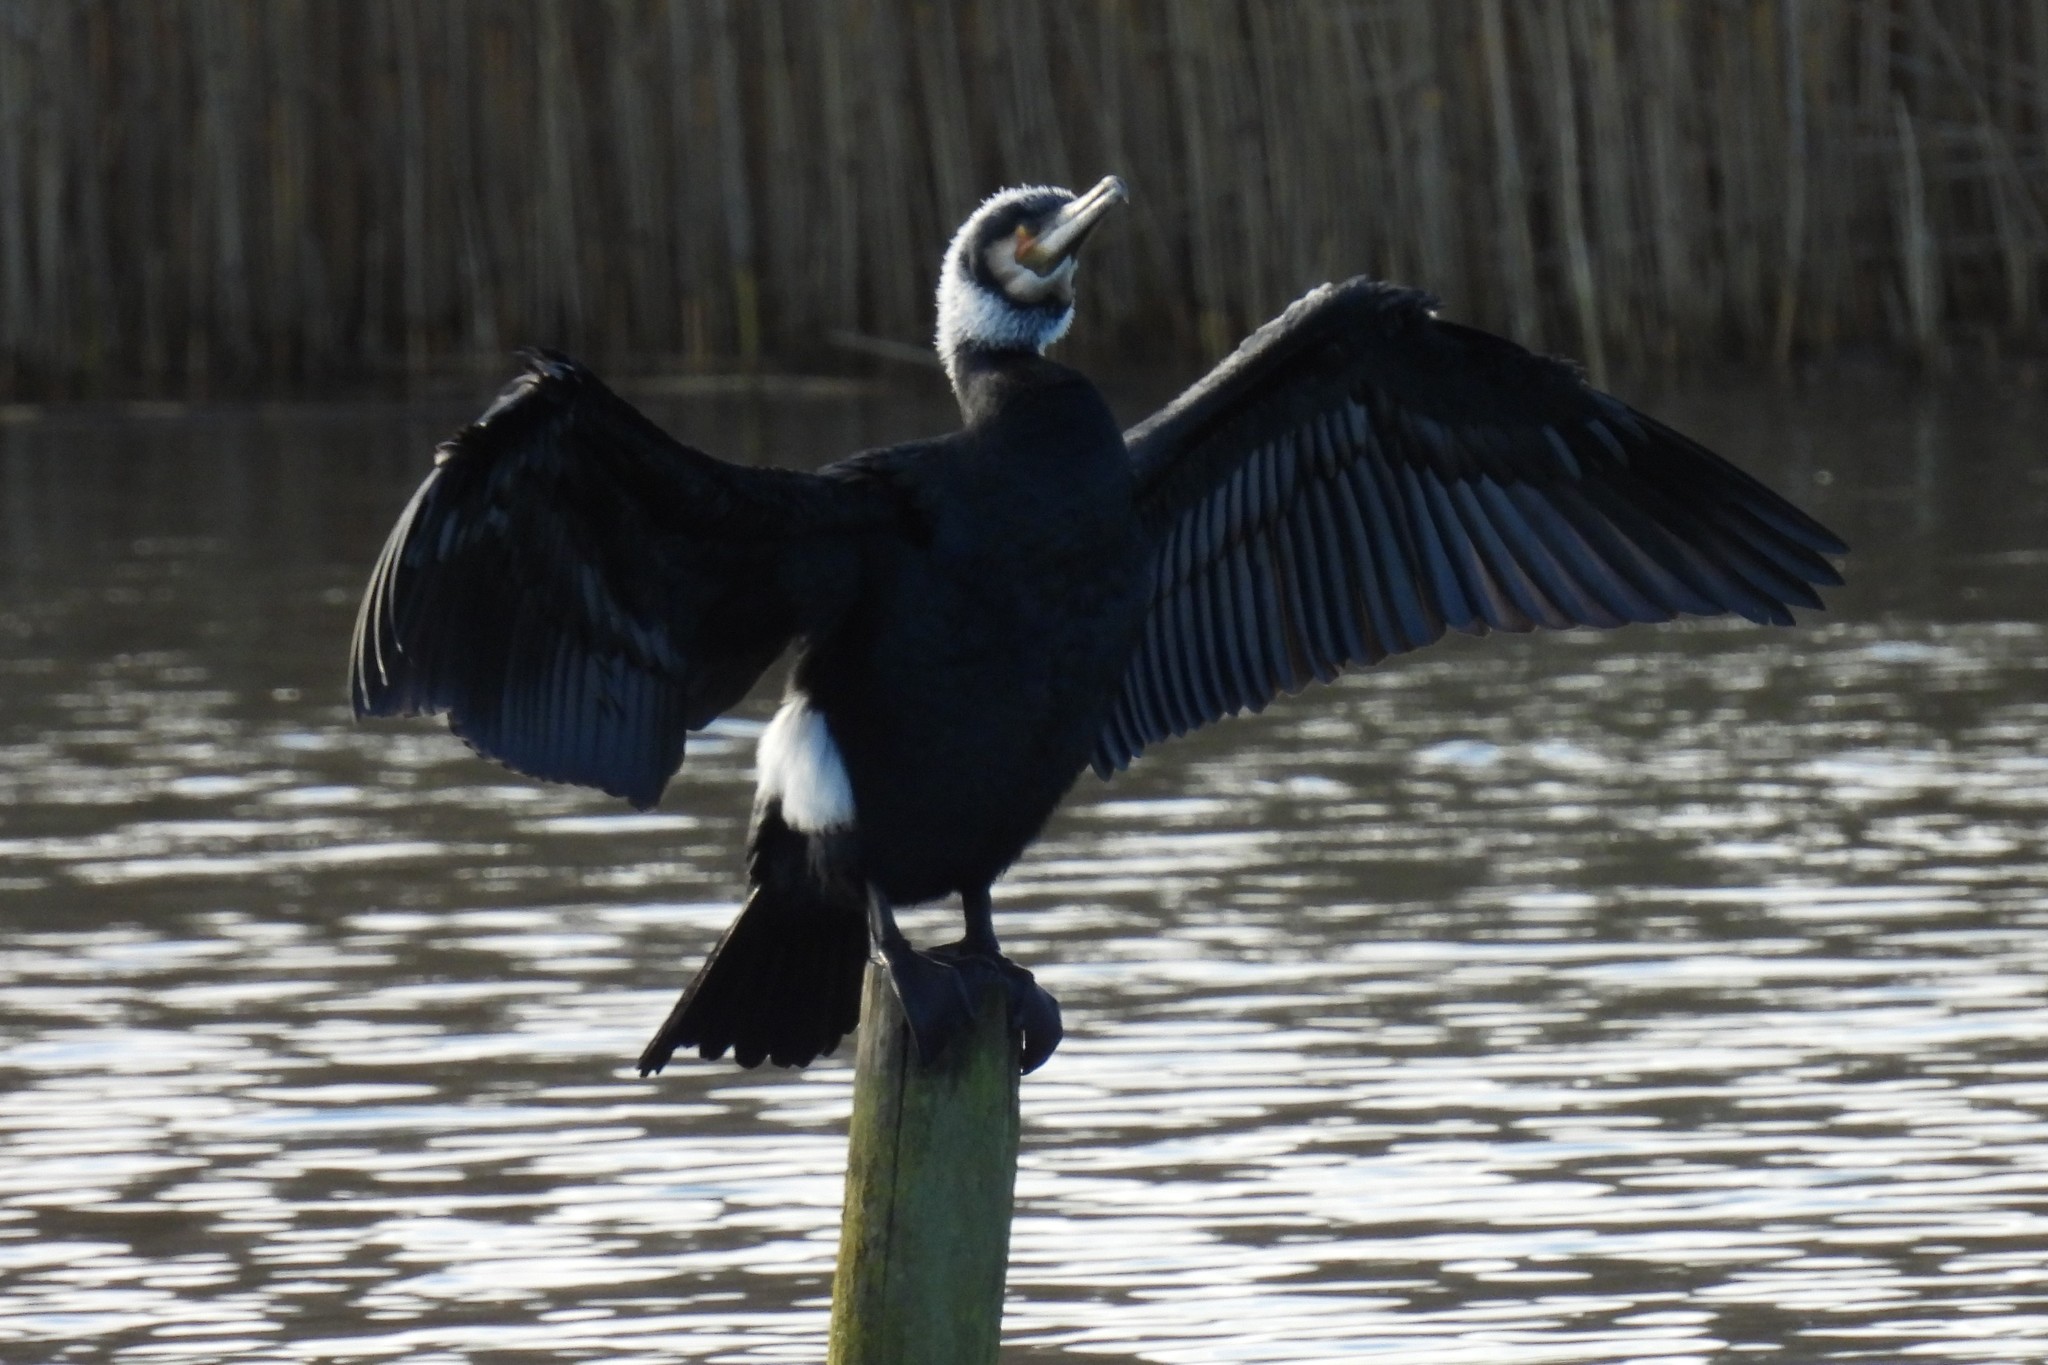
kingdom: Animalia
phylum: Chordata
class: Aves
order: Suliformes
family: Phalacrocoracidae
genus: Phalacrocorax
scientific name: Phalacrocorax carbo
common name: Great cormorant
